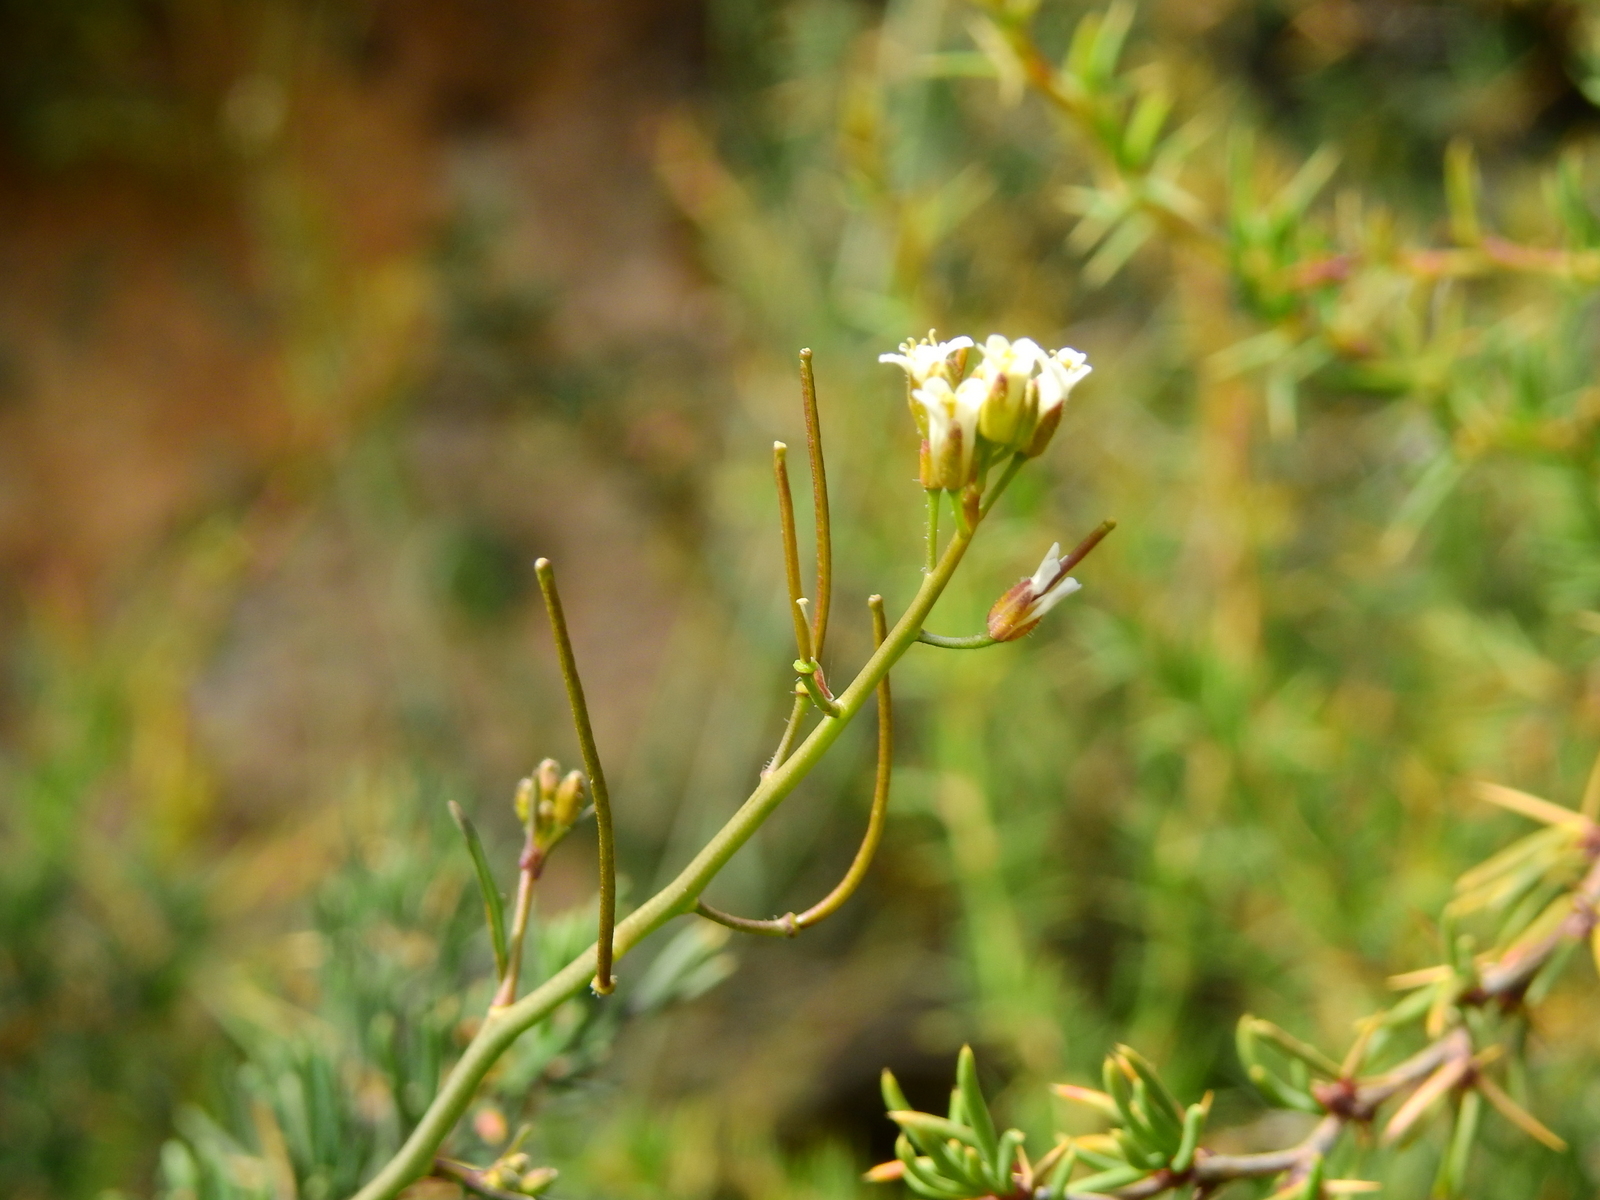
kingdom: Plantae
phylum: Tracheophyta
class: Magnoliopsida
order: Brassicales
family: Brassicaceae
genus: Mostacillastrum
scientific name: Mostacillastrum orbignyanum
